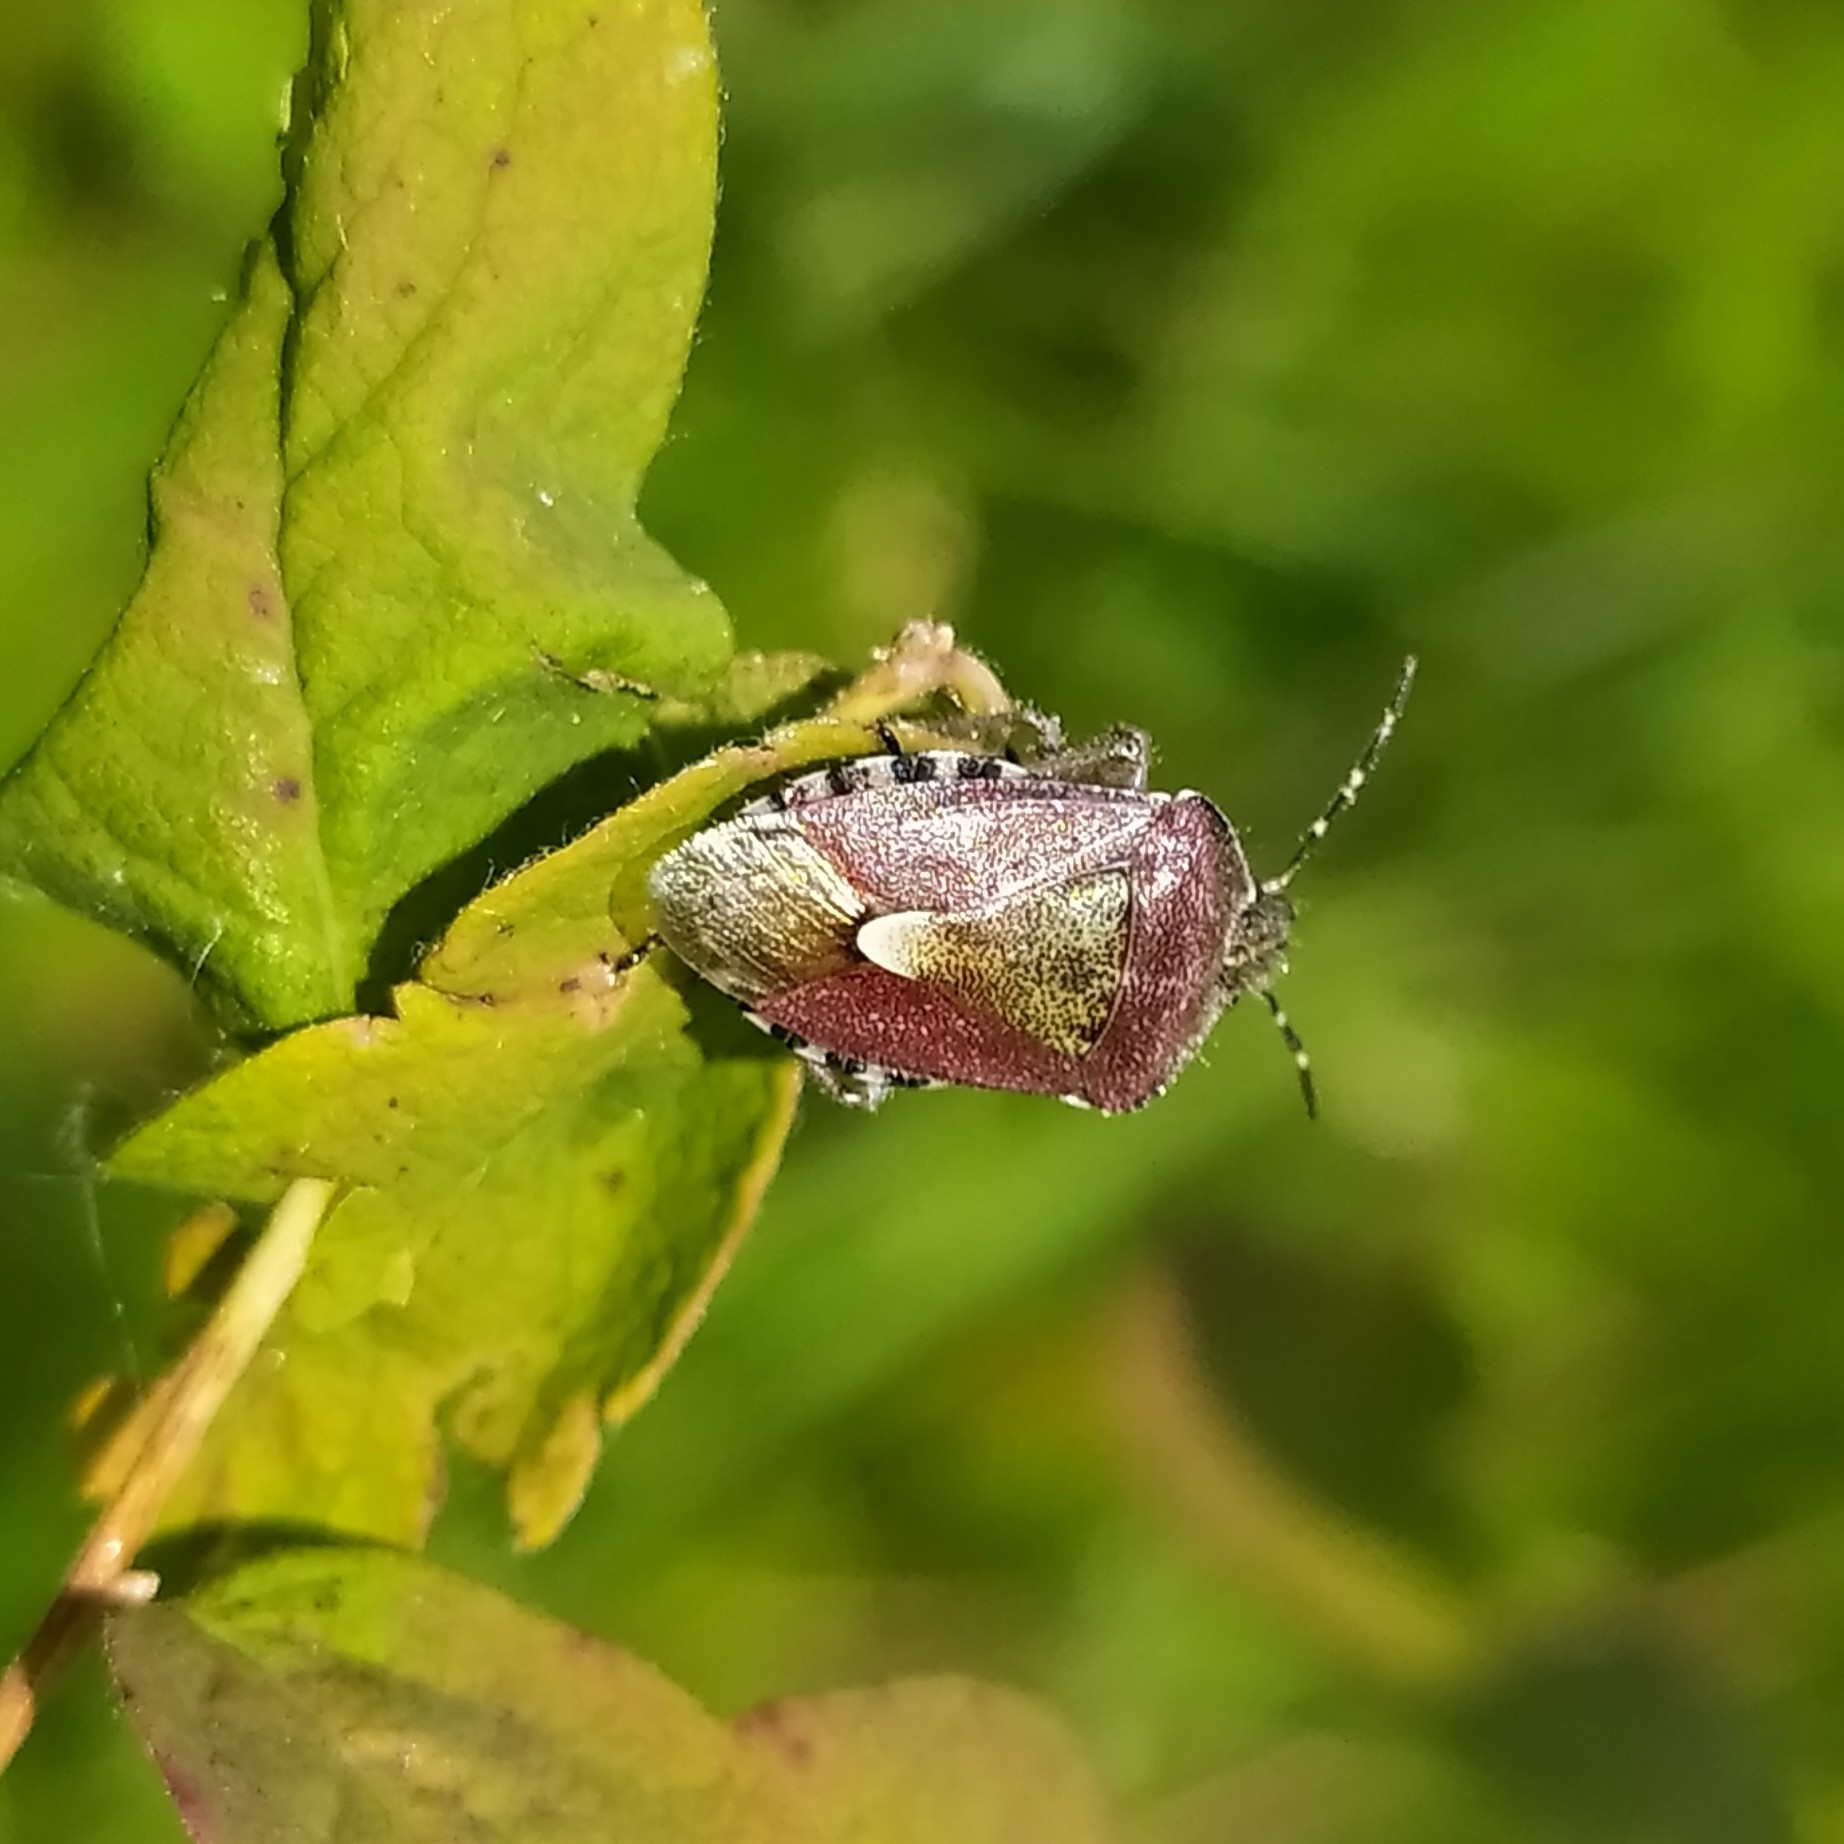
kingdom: Animalia
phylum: Arthropoda
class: Insecta
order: Hemiptera
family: Pentatomidae
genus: Dolycoris
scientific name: Dolycoris baccarum
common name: Sloe bug
